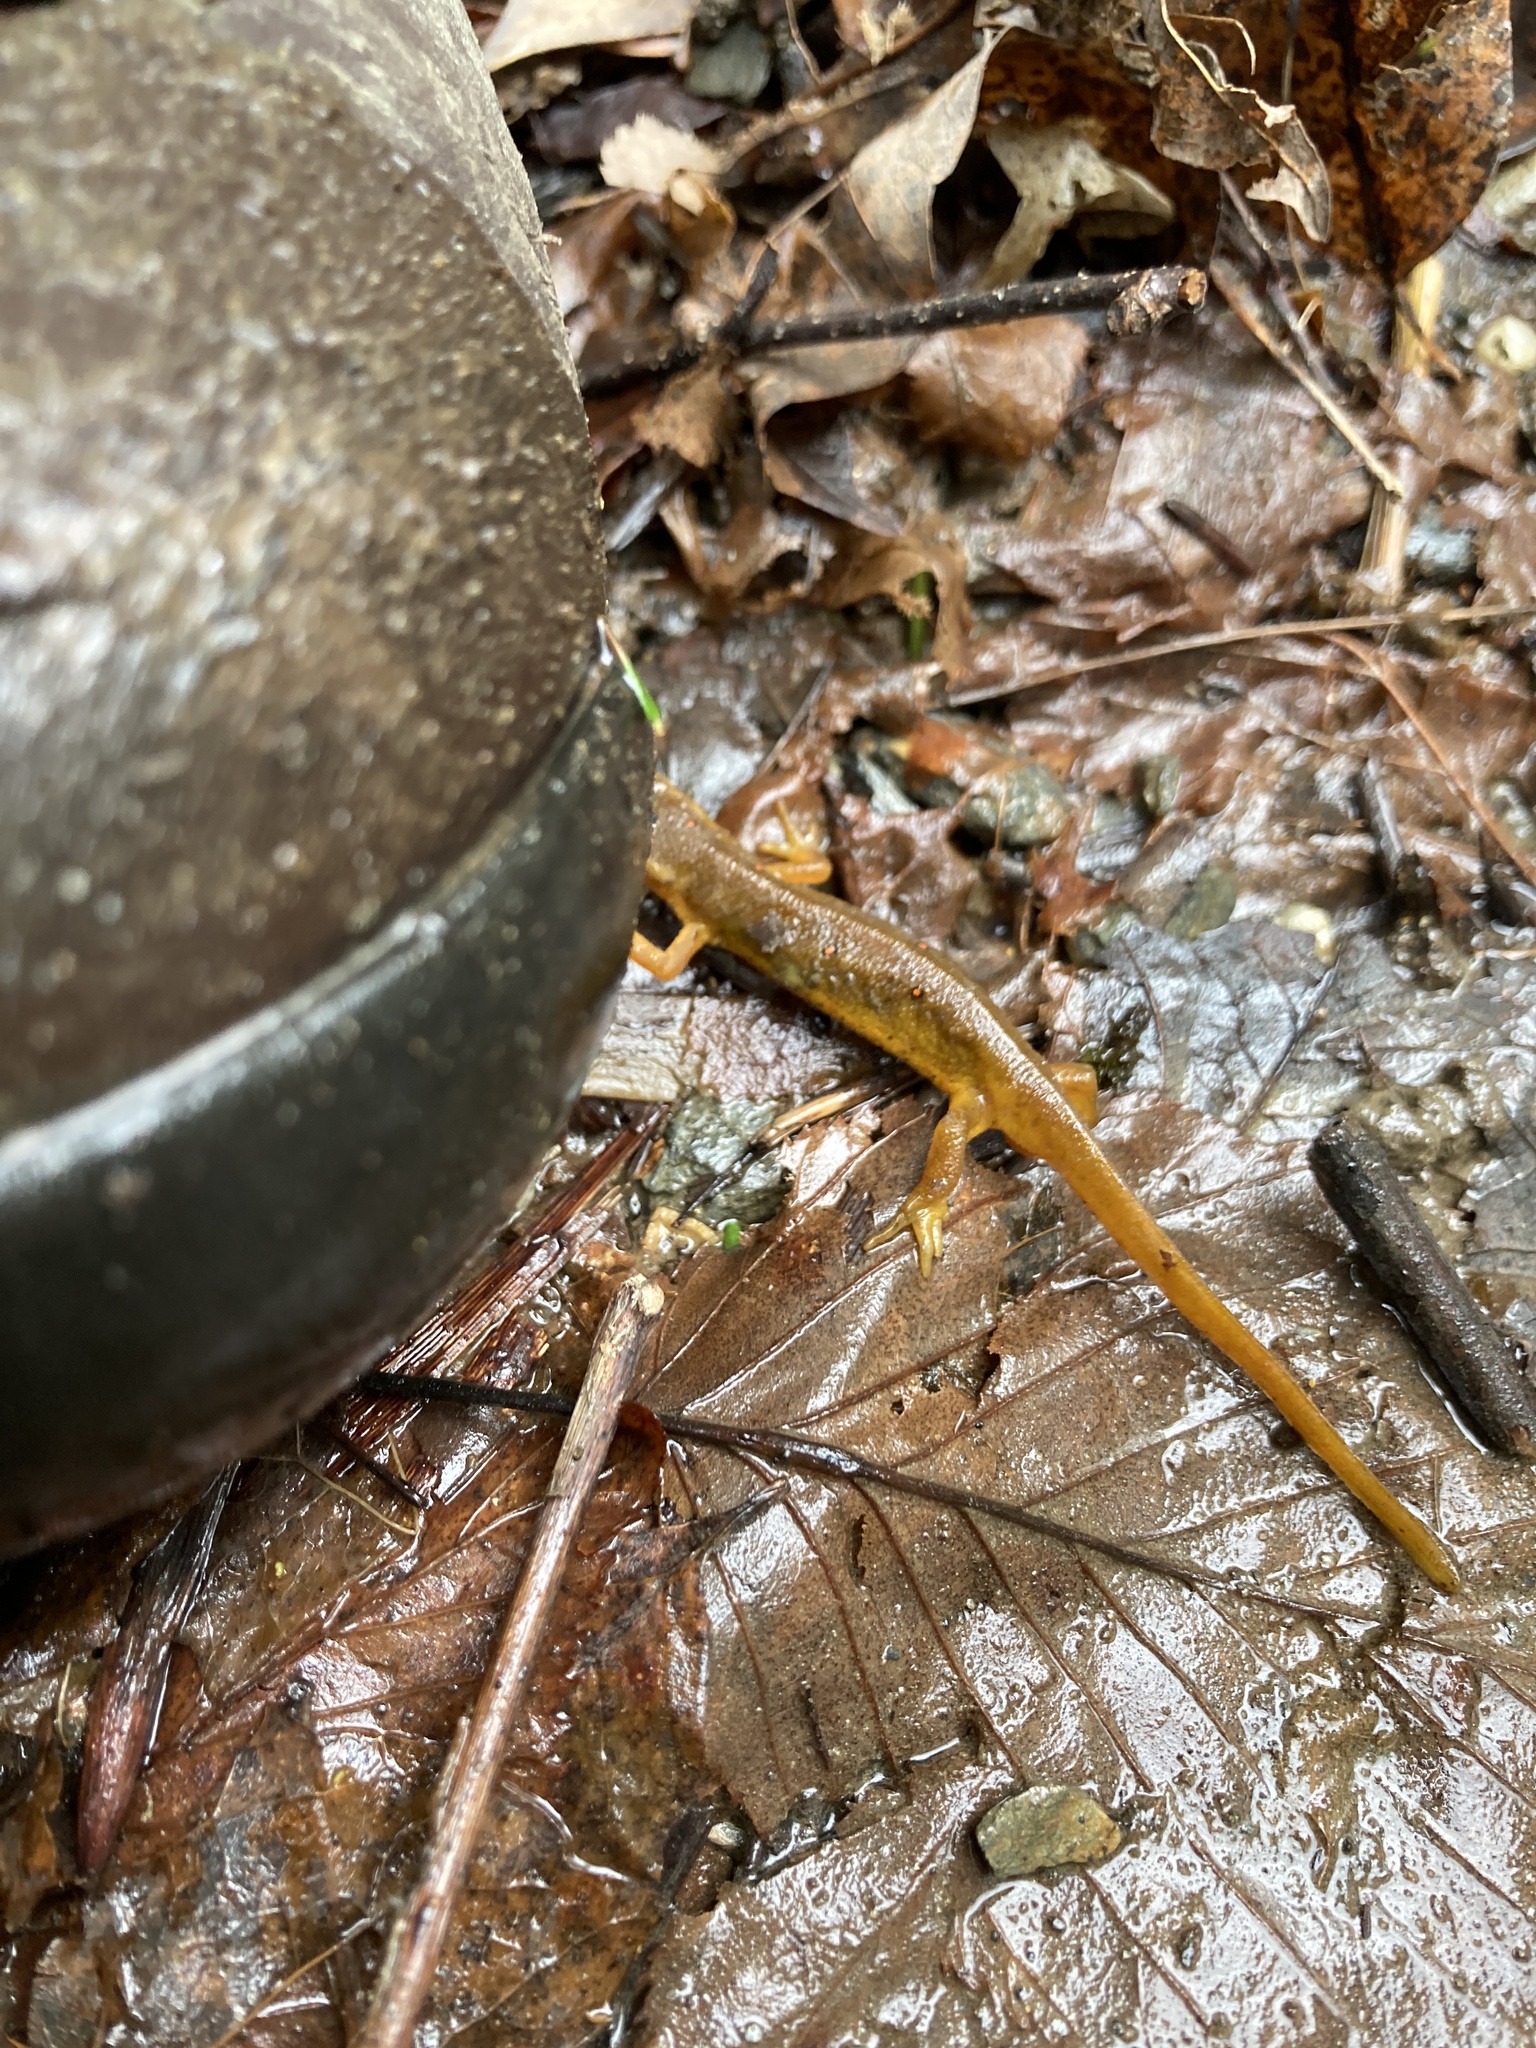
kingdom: Animalia
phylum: Chordata
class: Amphibia
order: Caudata
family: Salamandridae
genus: Notophthalmus
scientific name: Notophthalmus viridescens
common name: Eastern newt
